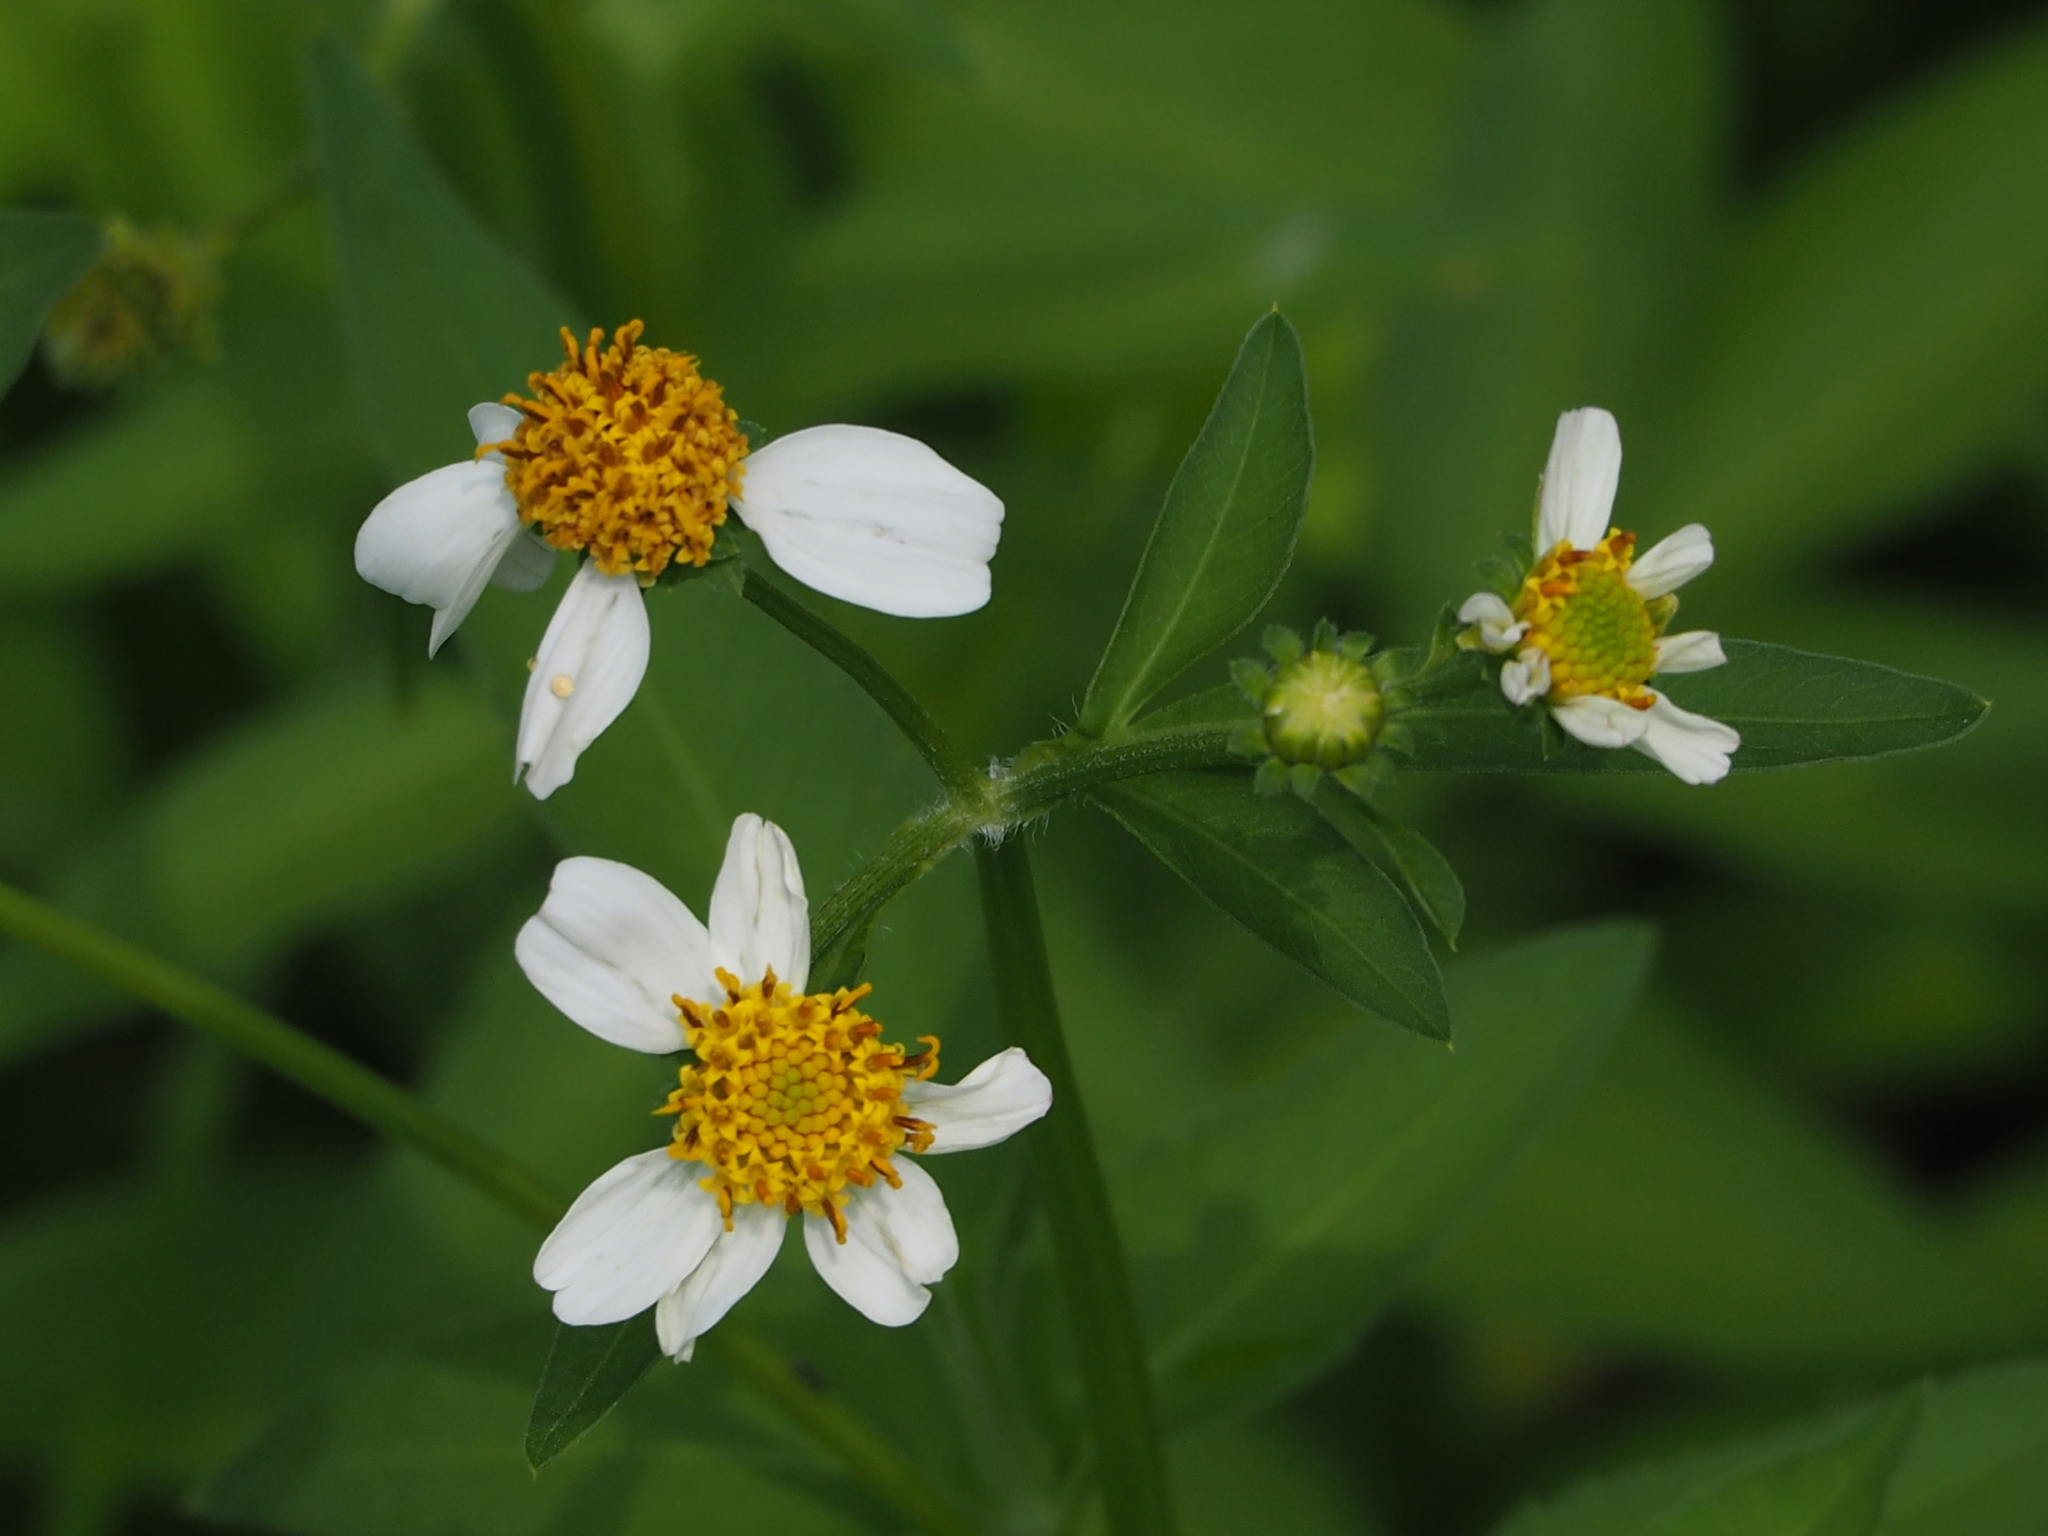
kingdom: Plantae
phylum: Tracheophyta
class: Magnoliopsida
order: Asterales
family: Asteraceae
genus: Bidens
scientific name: Bidens alba
